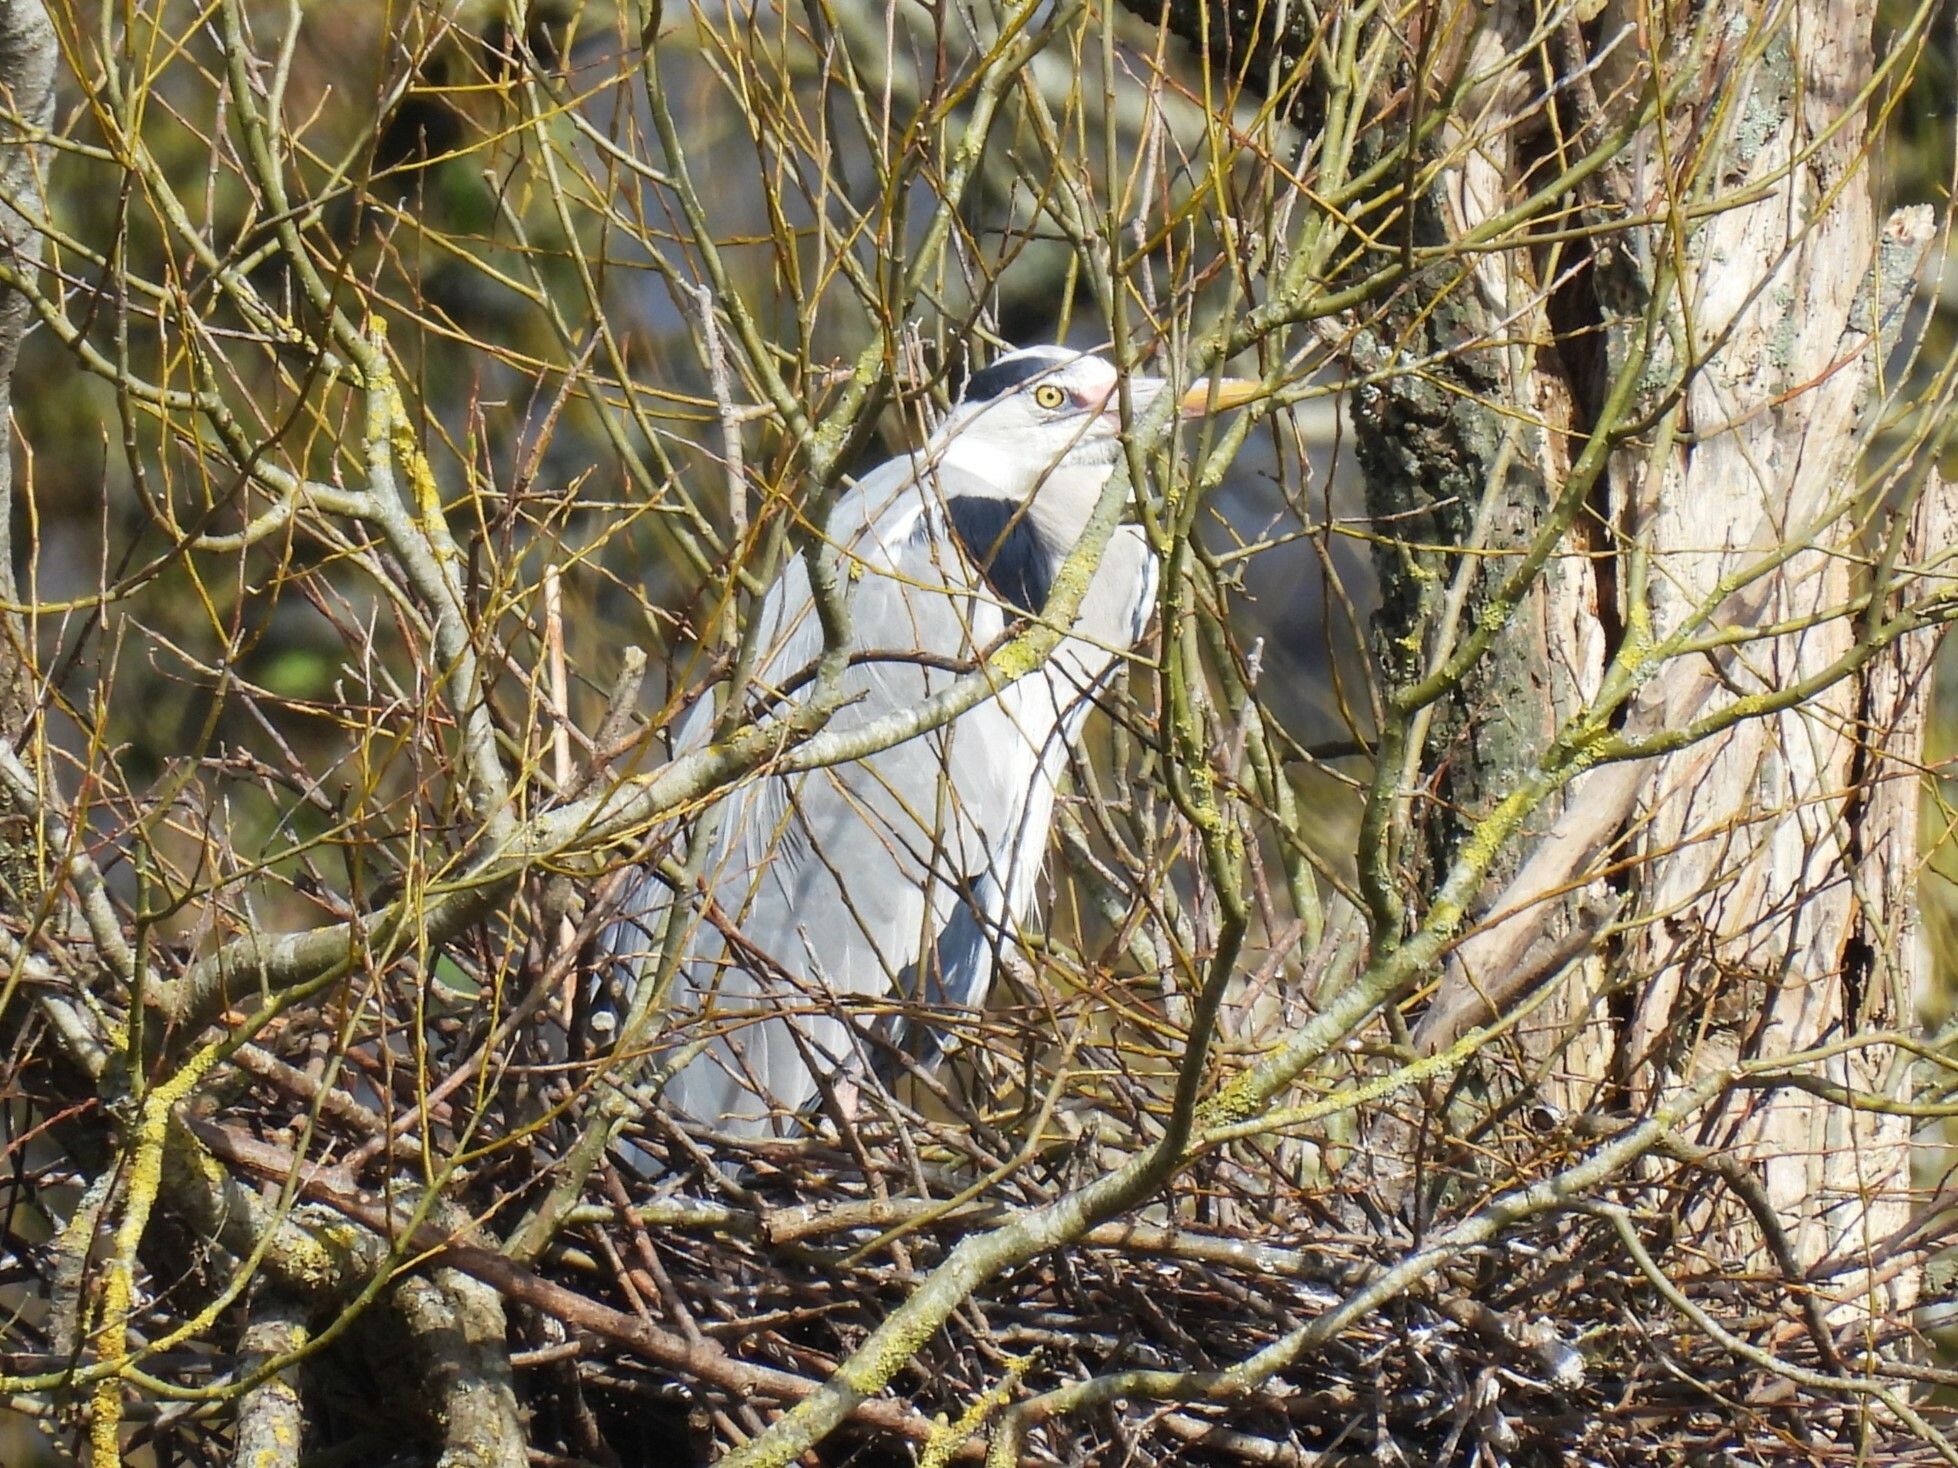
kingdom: Animalia
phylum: Chordata
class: Aves
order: Pelecaniformes
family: Ardeidae
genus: Ardea
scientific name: Ardea cinerea
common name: Grey heron
